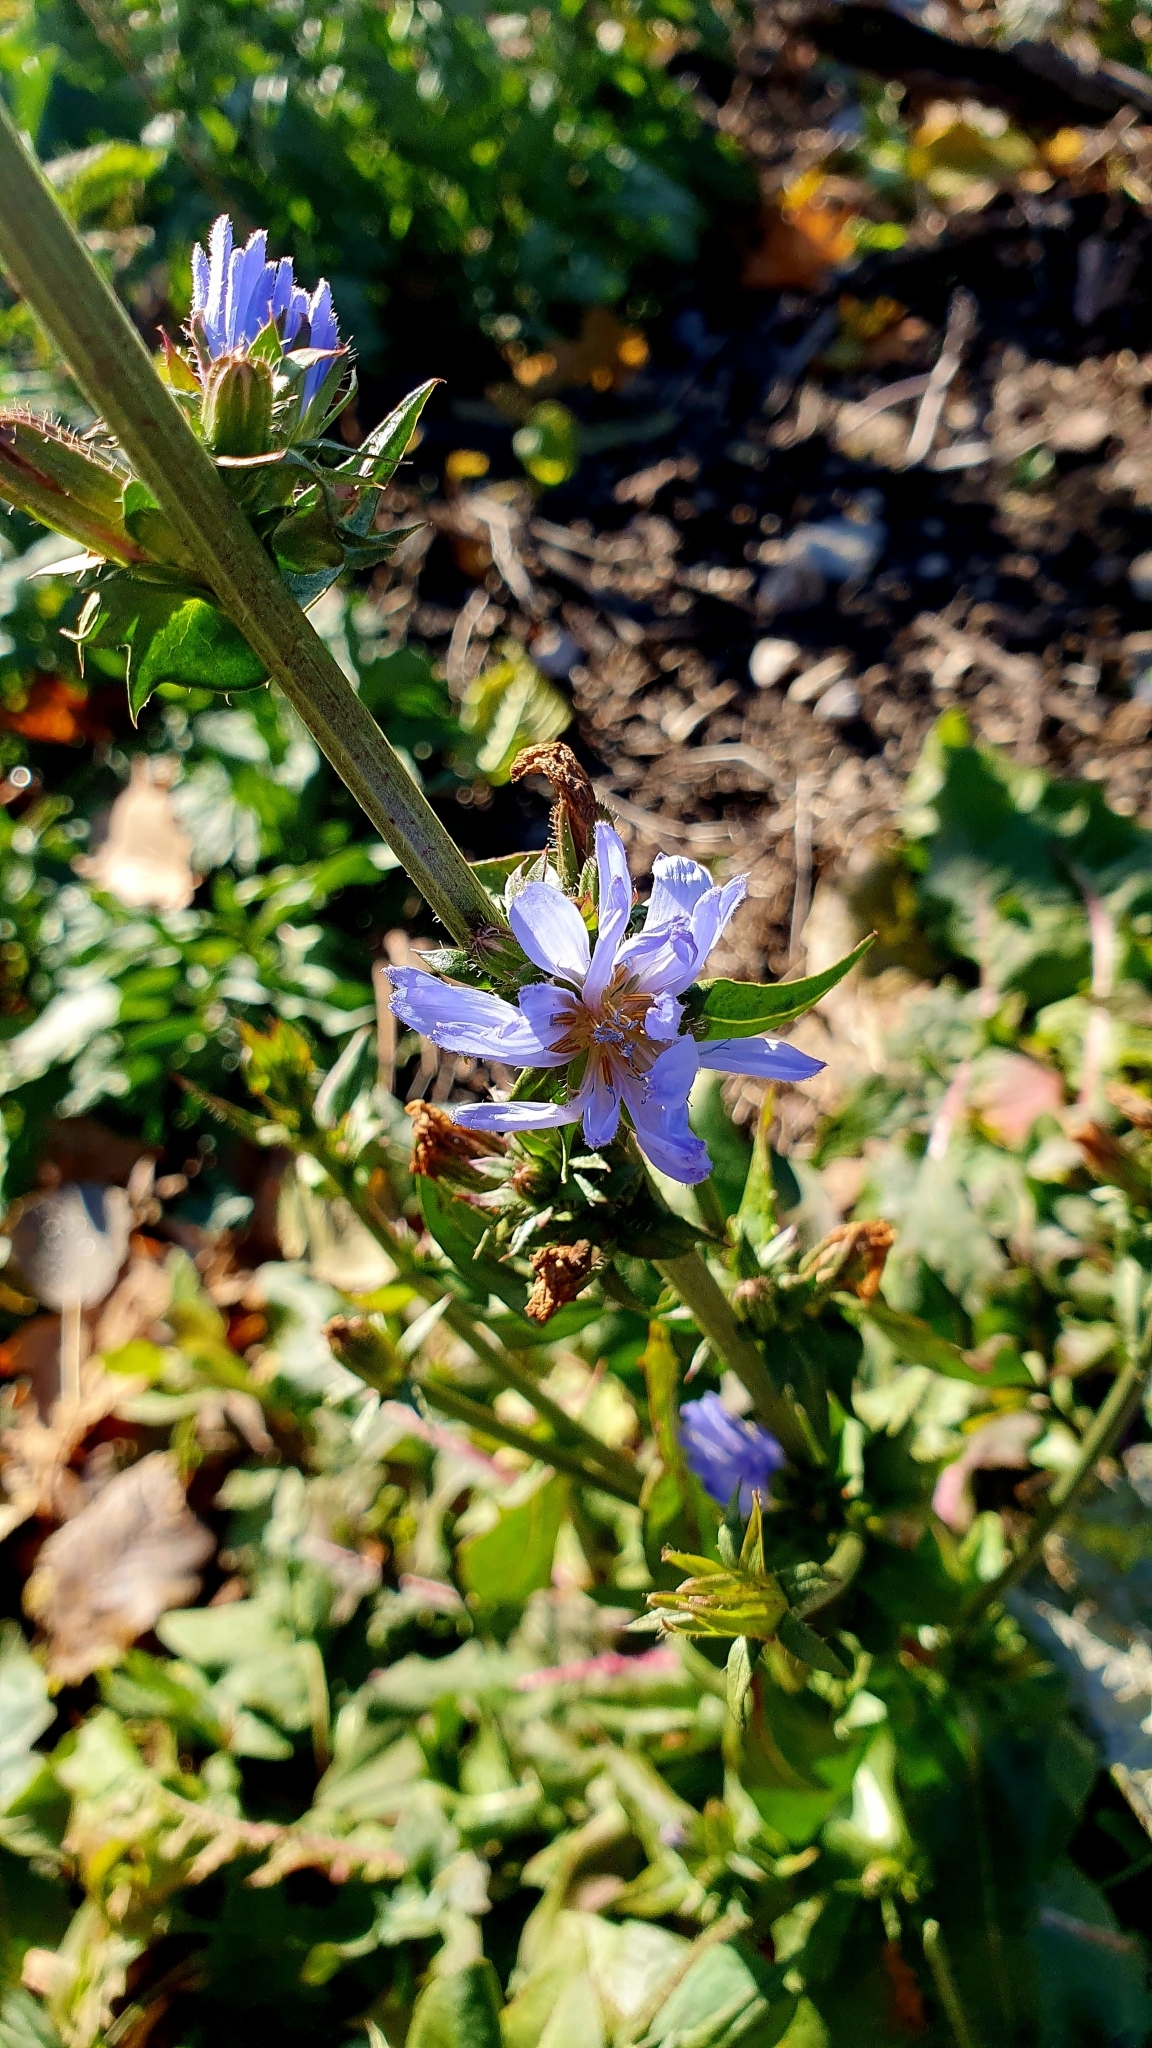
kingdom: Plantae
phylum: Tracheophyta
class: Magnoliopsida
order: Asterales
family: Asteraceae
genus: Cichorium
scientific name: Cichorium intybus
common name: Chicory
